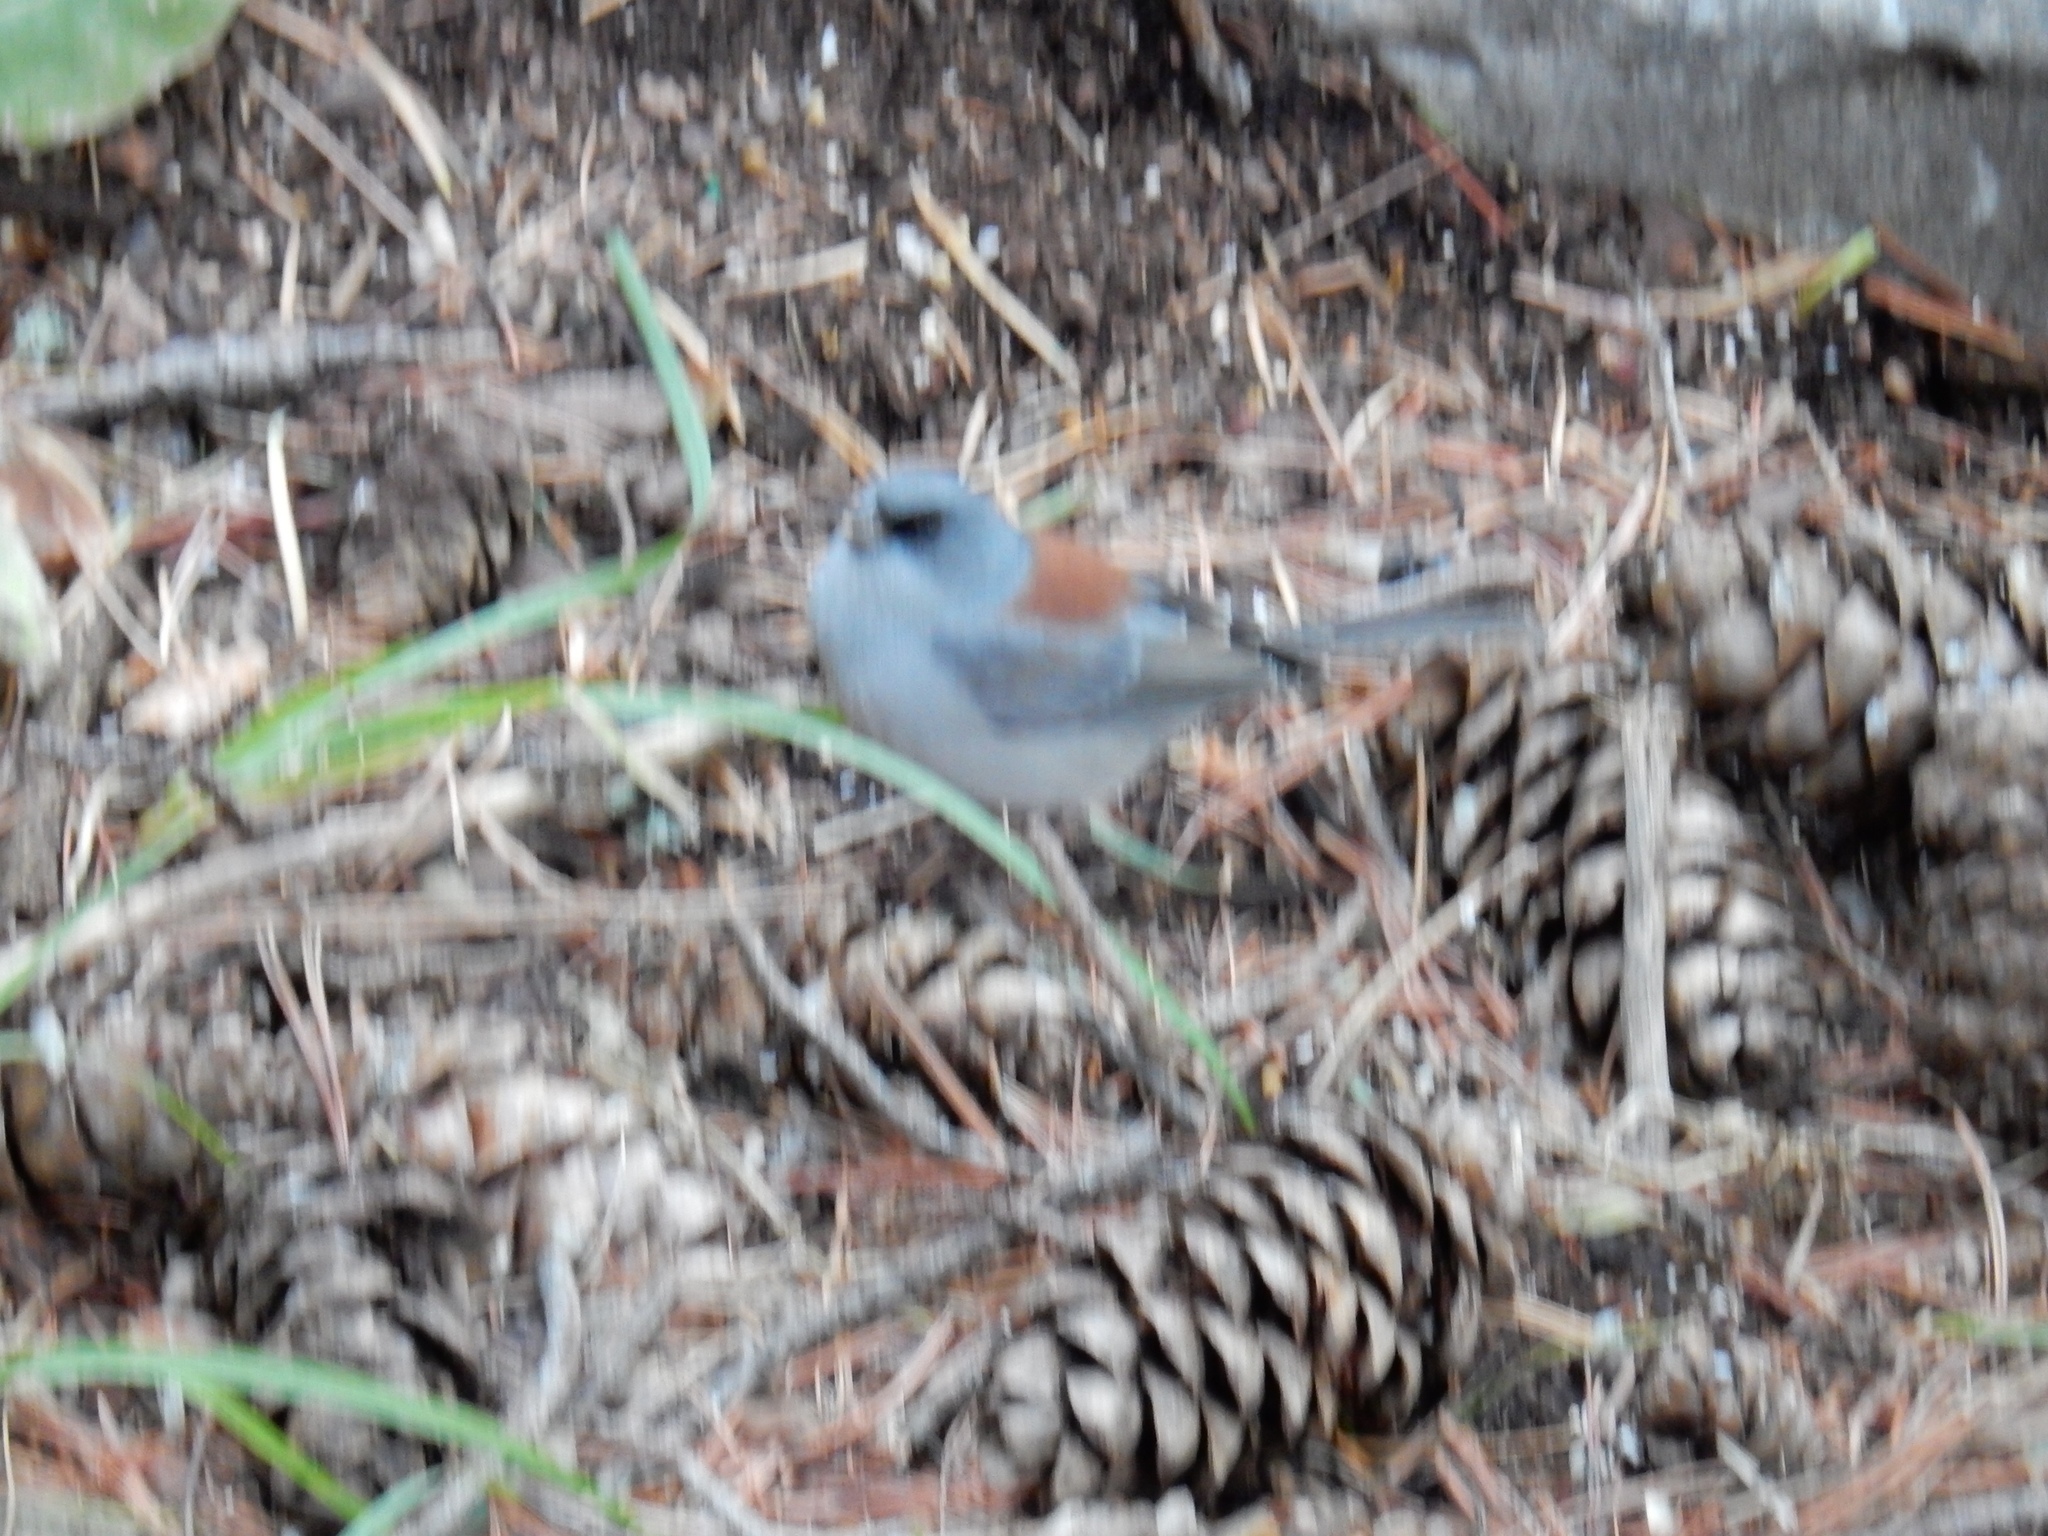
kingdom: Animalia
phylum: Chordata
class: Aves
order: Passeriformes
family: Passerellidae
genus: Junco
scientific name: Junco hyemalis
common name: Dark-eyed junco
